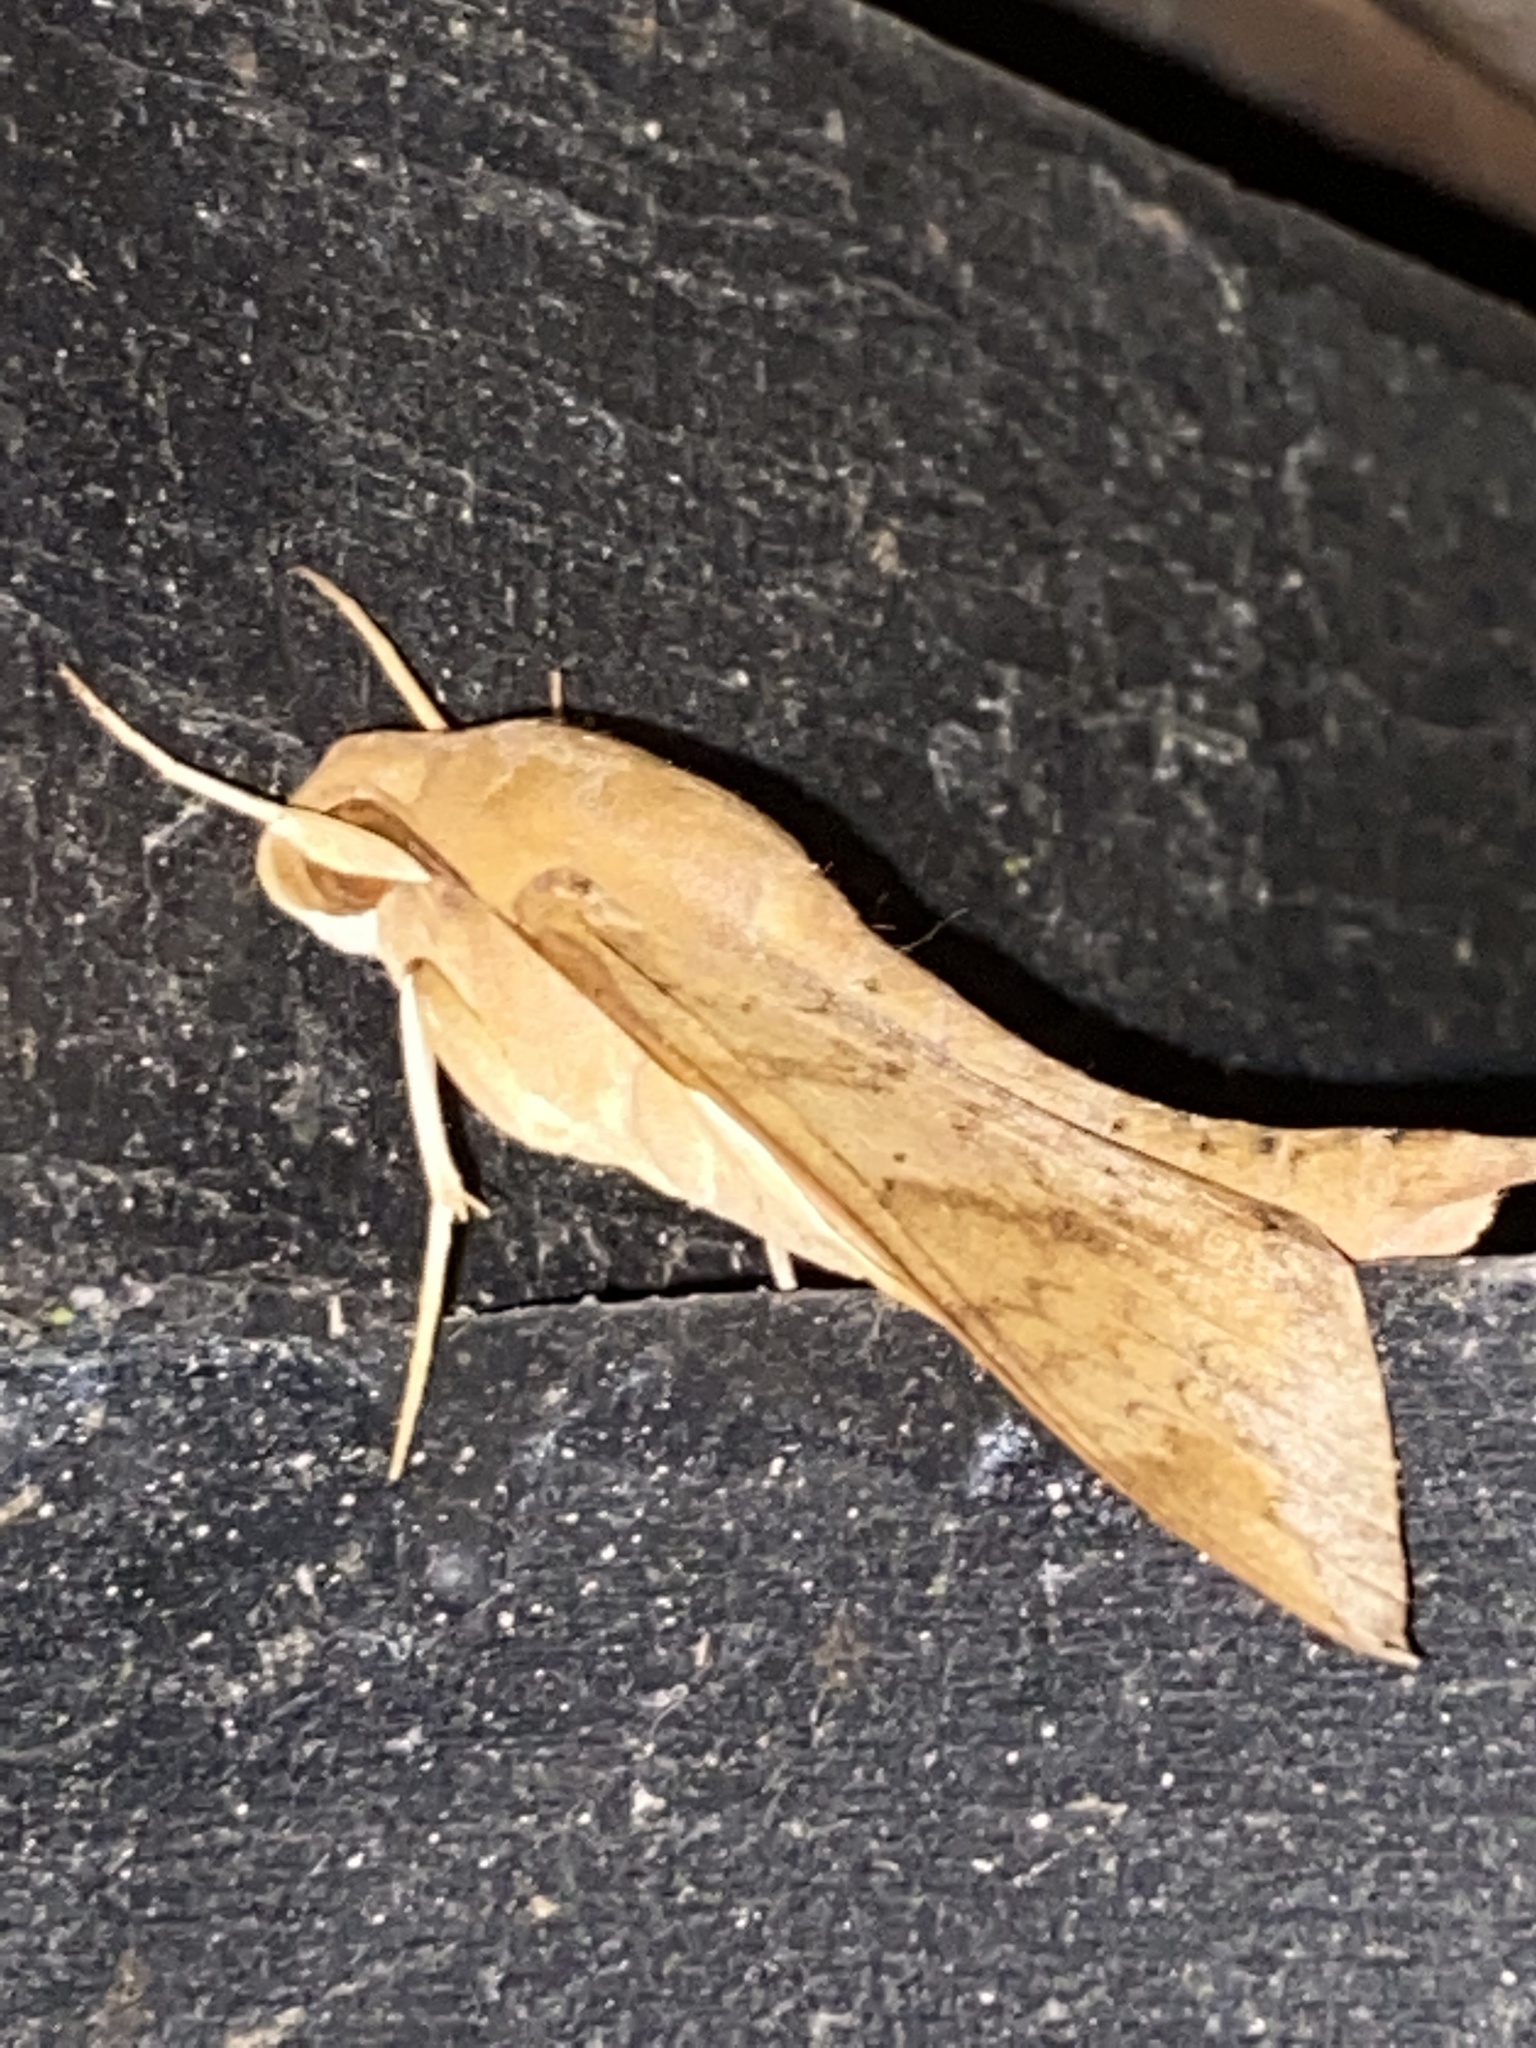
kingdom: Animalia
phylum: Arthropoda
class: Insecta
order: Lepidoptera
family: Sphingidae
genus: Pachylioides
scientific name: Pachylioides resumens
